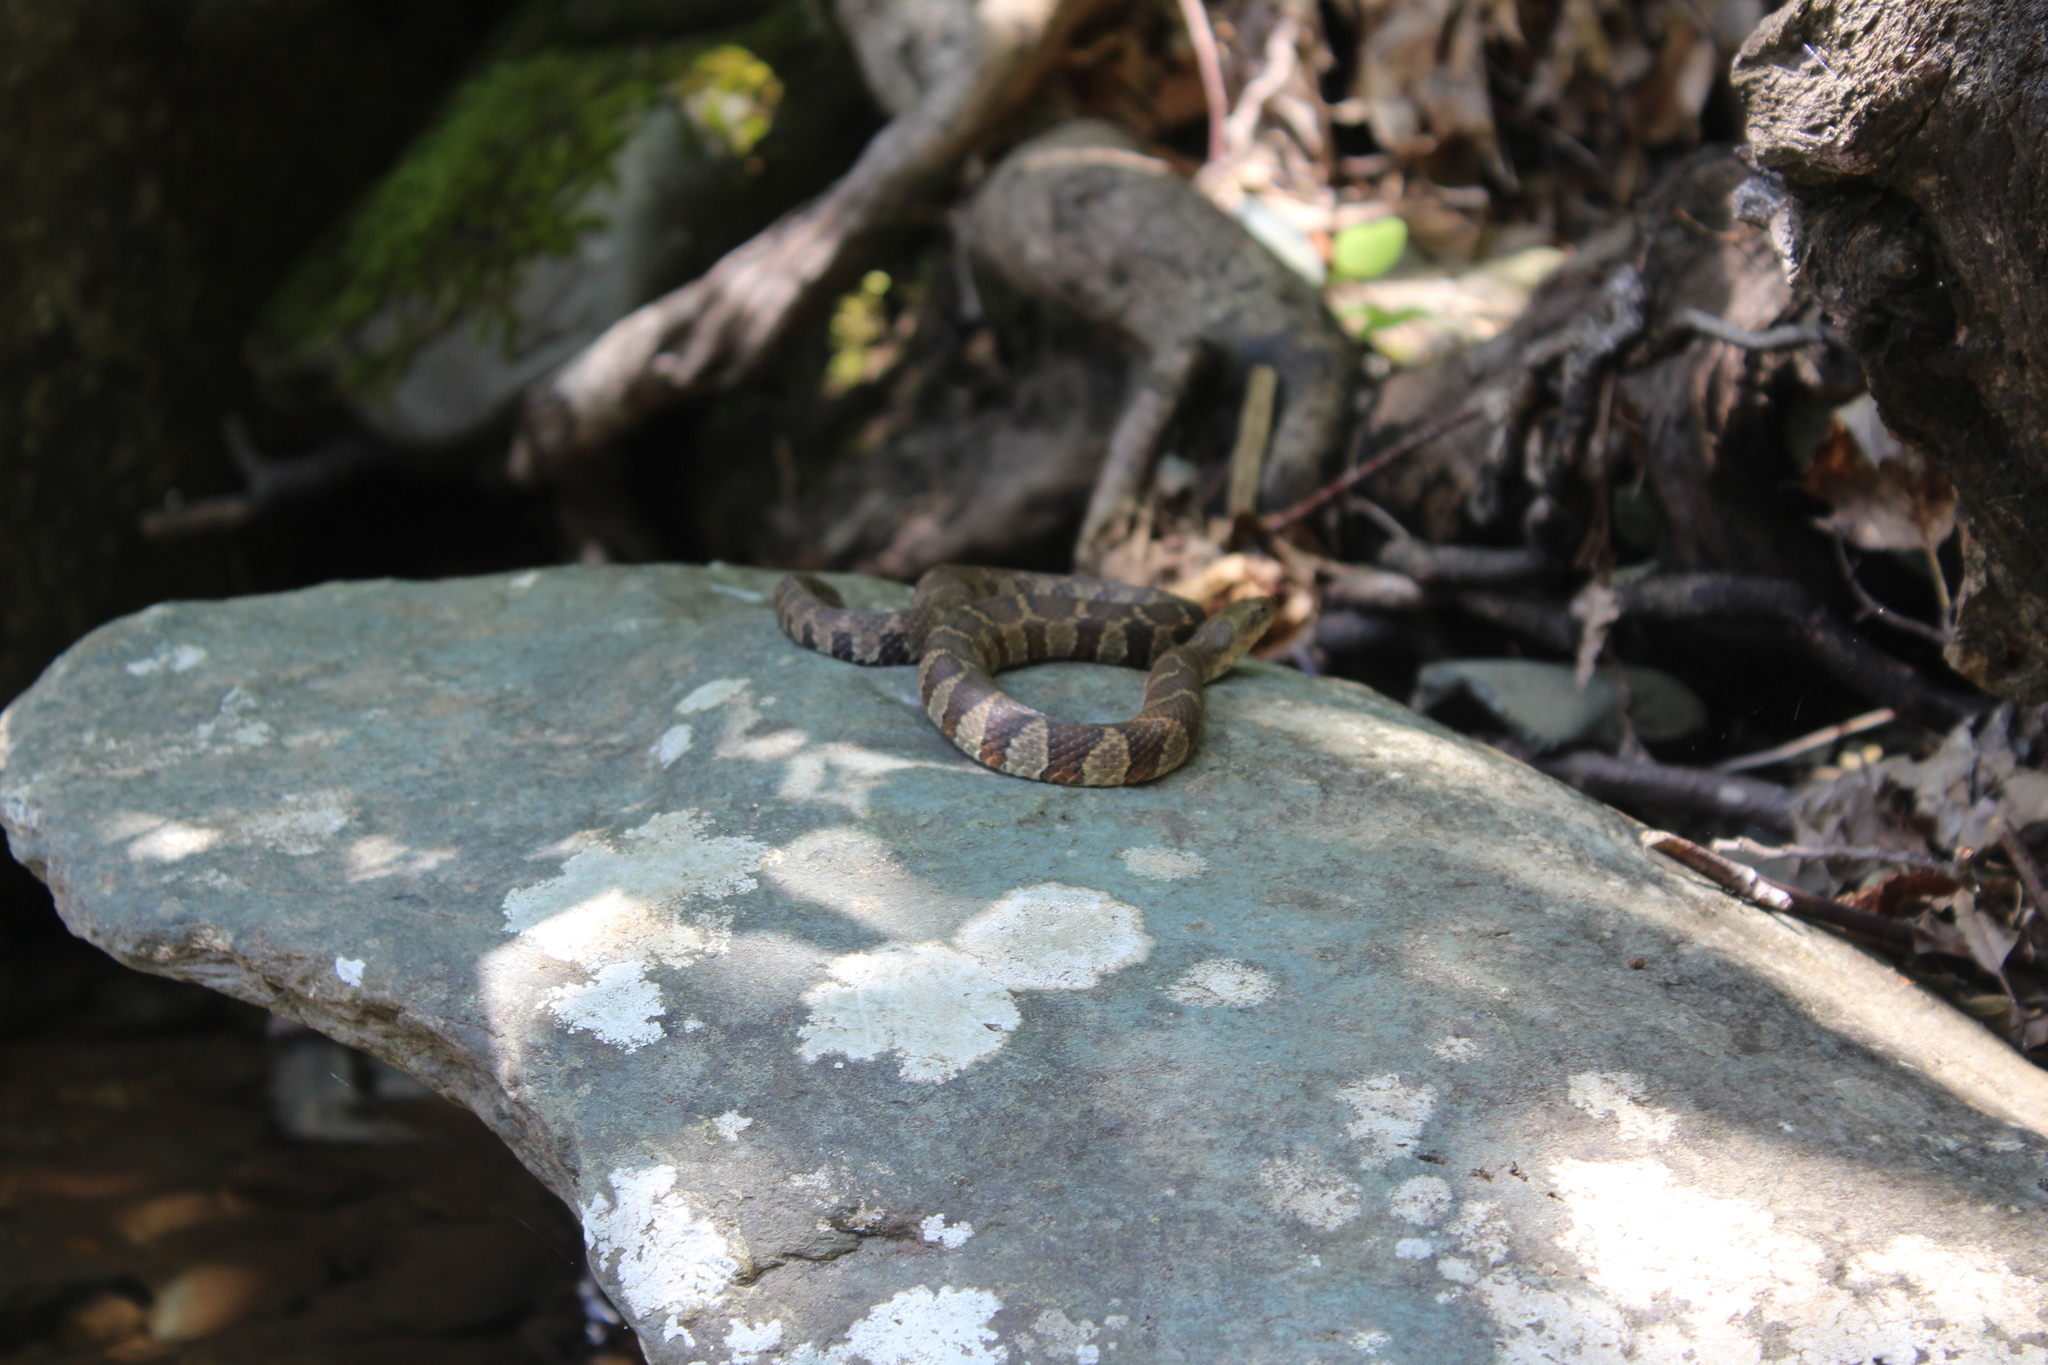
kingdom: Animalia
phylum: Chordata
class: Squamata
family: Colubridae
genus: Nerodia
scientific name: Nerodia sipedon
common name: Northern water snake
